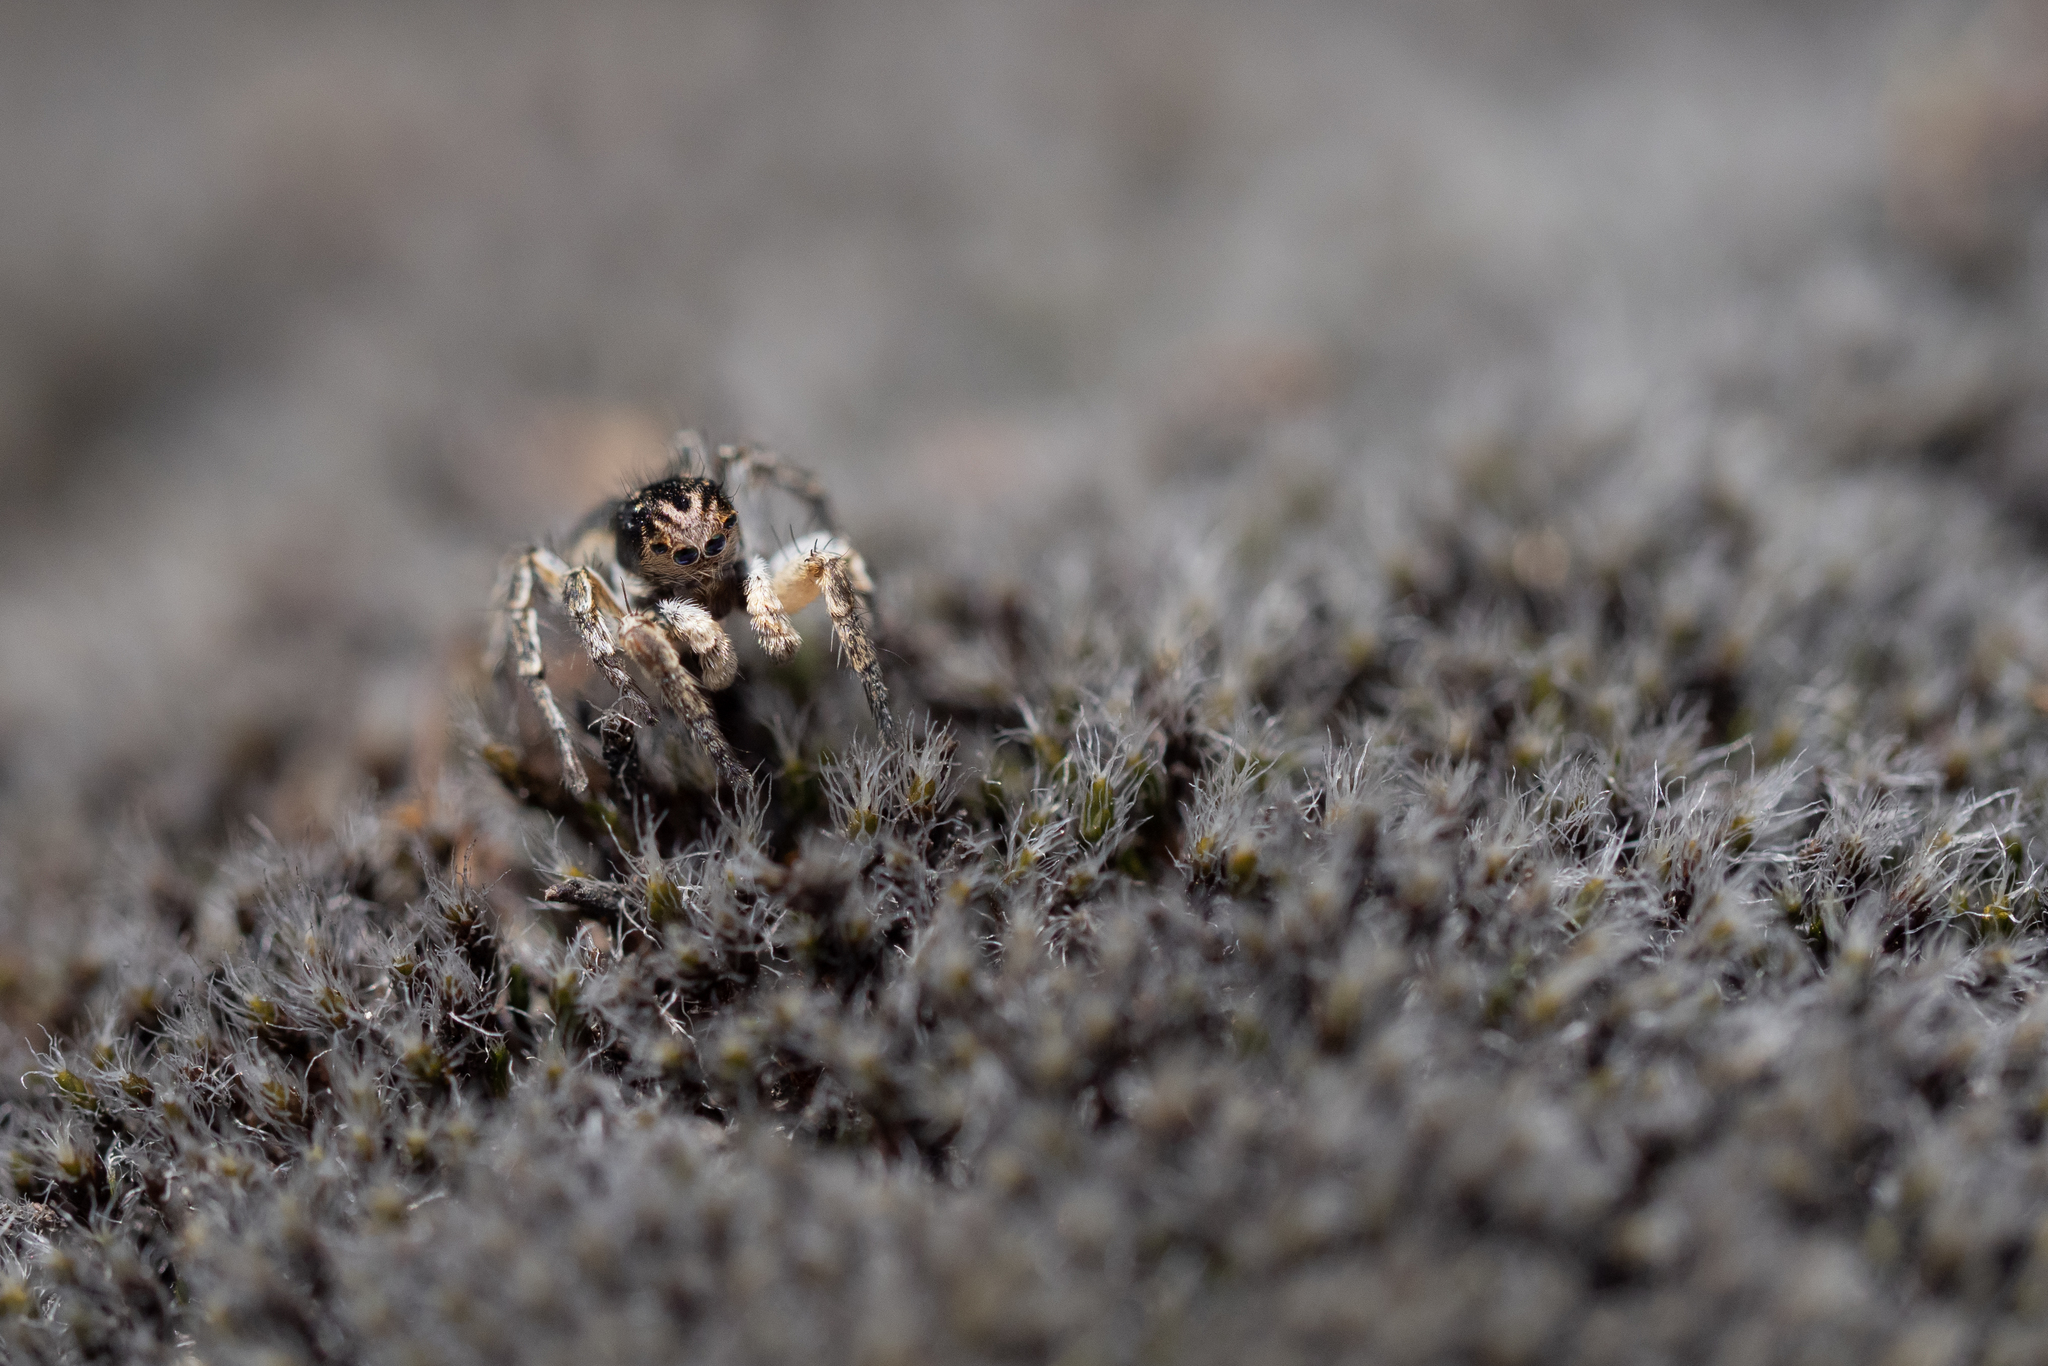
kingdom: Animalia
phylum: Arthropoda
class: Arachnida
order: Araneae
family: Salticidae
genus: Aelurillus
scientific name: Aelurillus v-insignitus
